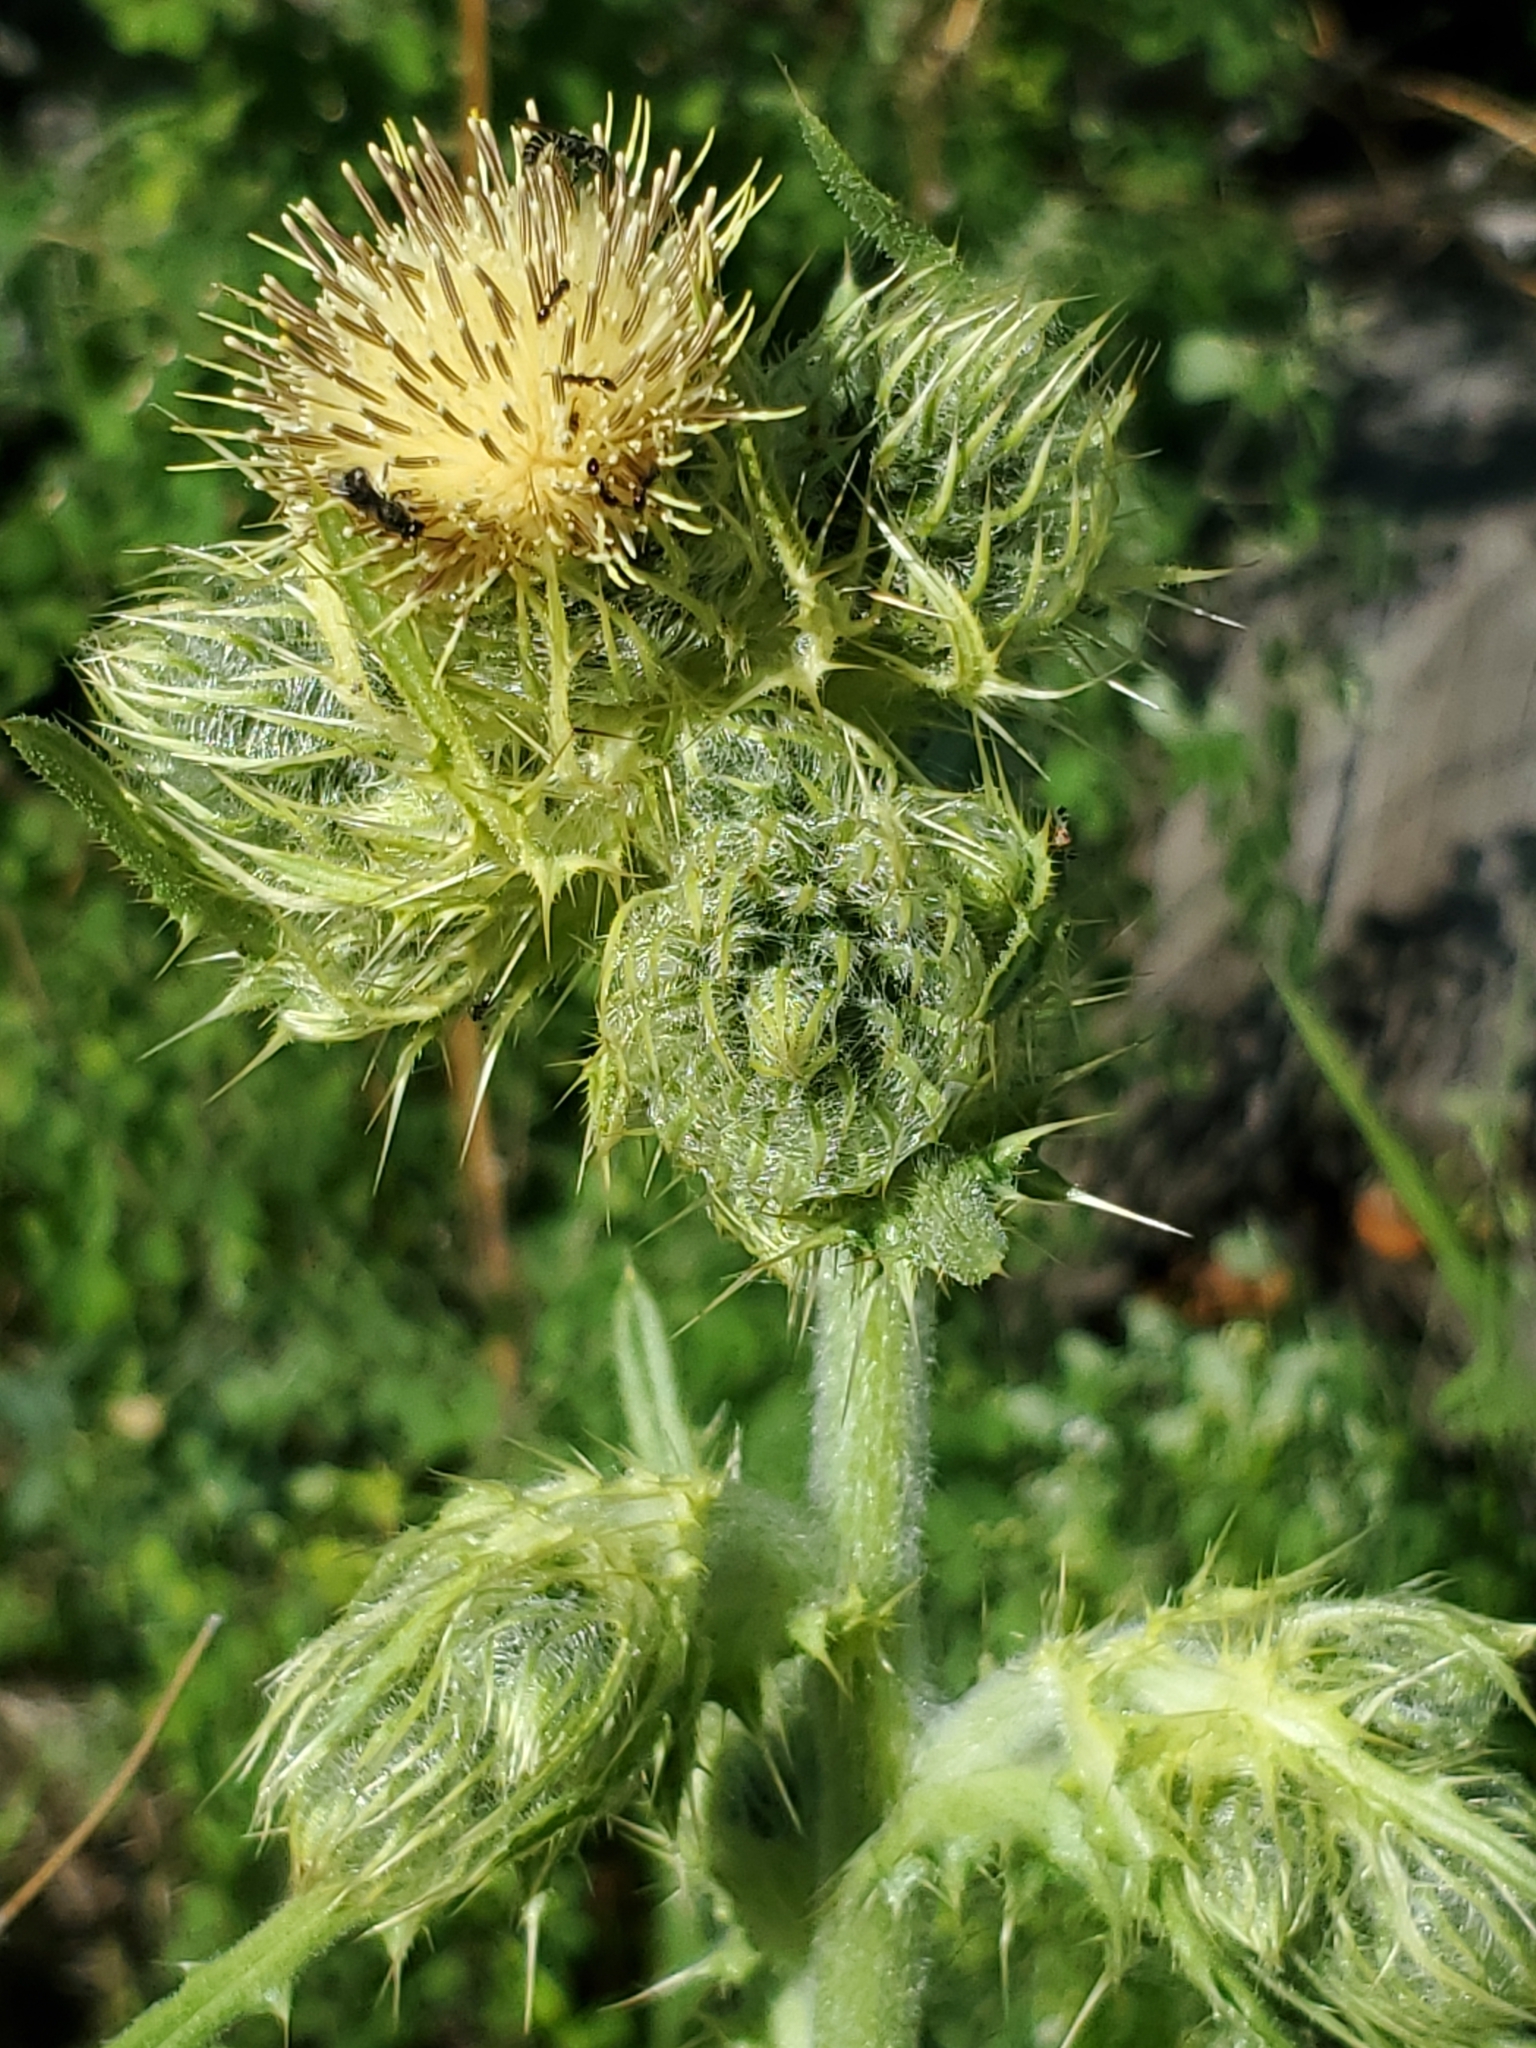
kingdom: Plantae
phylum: Tracheophyta
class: Magnoliopsida
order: Asterales
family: Asteraceae
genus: Cirsium
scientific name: Cirsium parryi
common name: Parry's thistle
